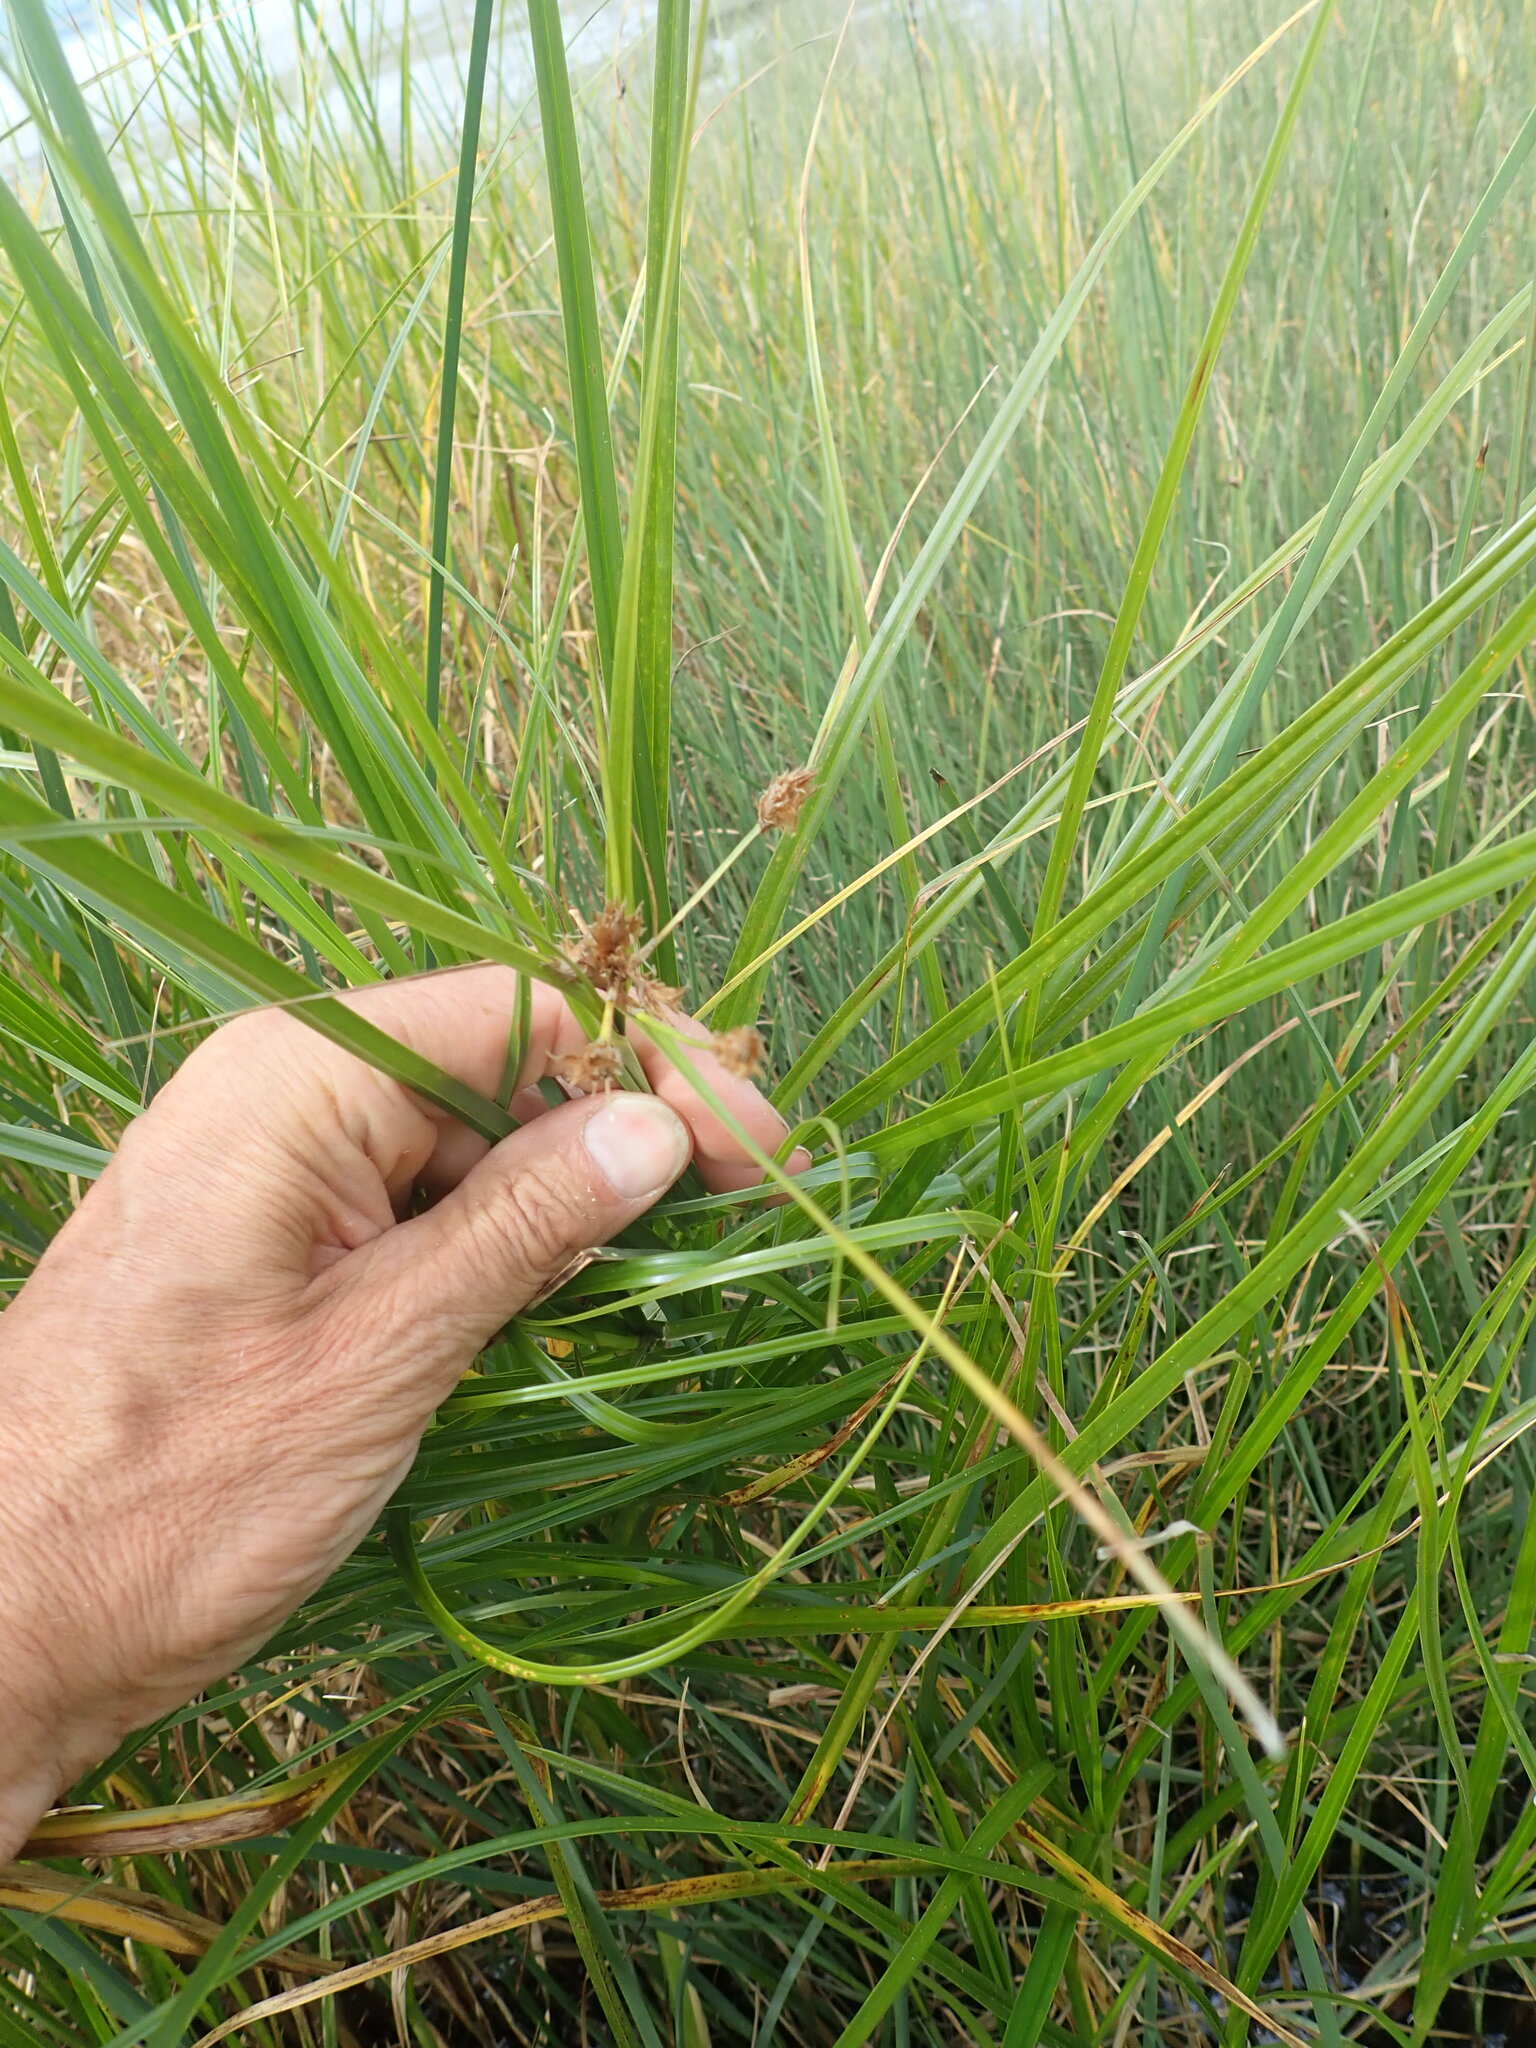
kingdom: Plantae
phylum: Tracheophyta
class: Liliopsida
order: Poales
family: Cyperaceae
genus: Bolboschoenus
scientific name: Bolboschoenus caldwellii
